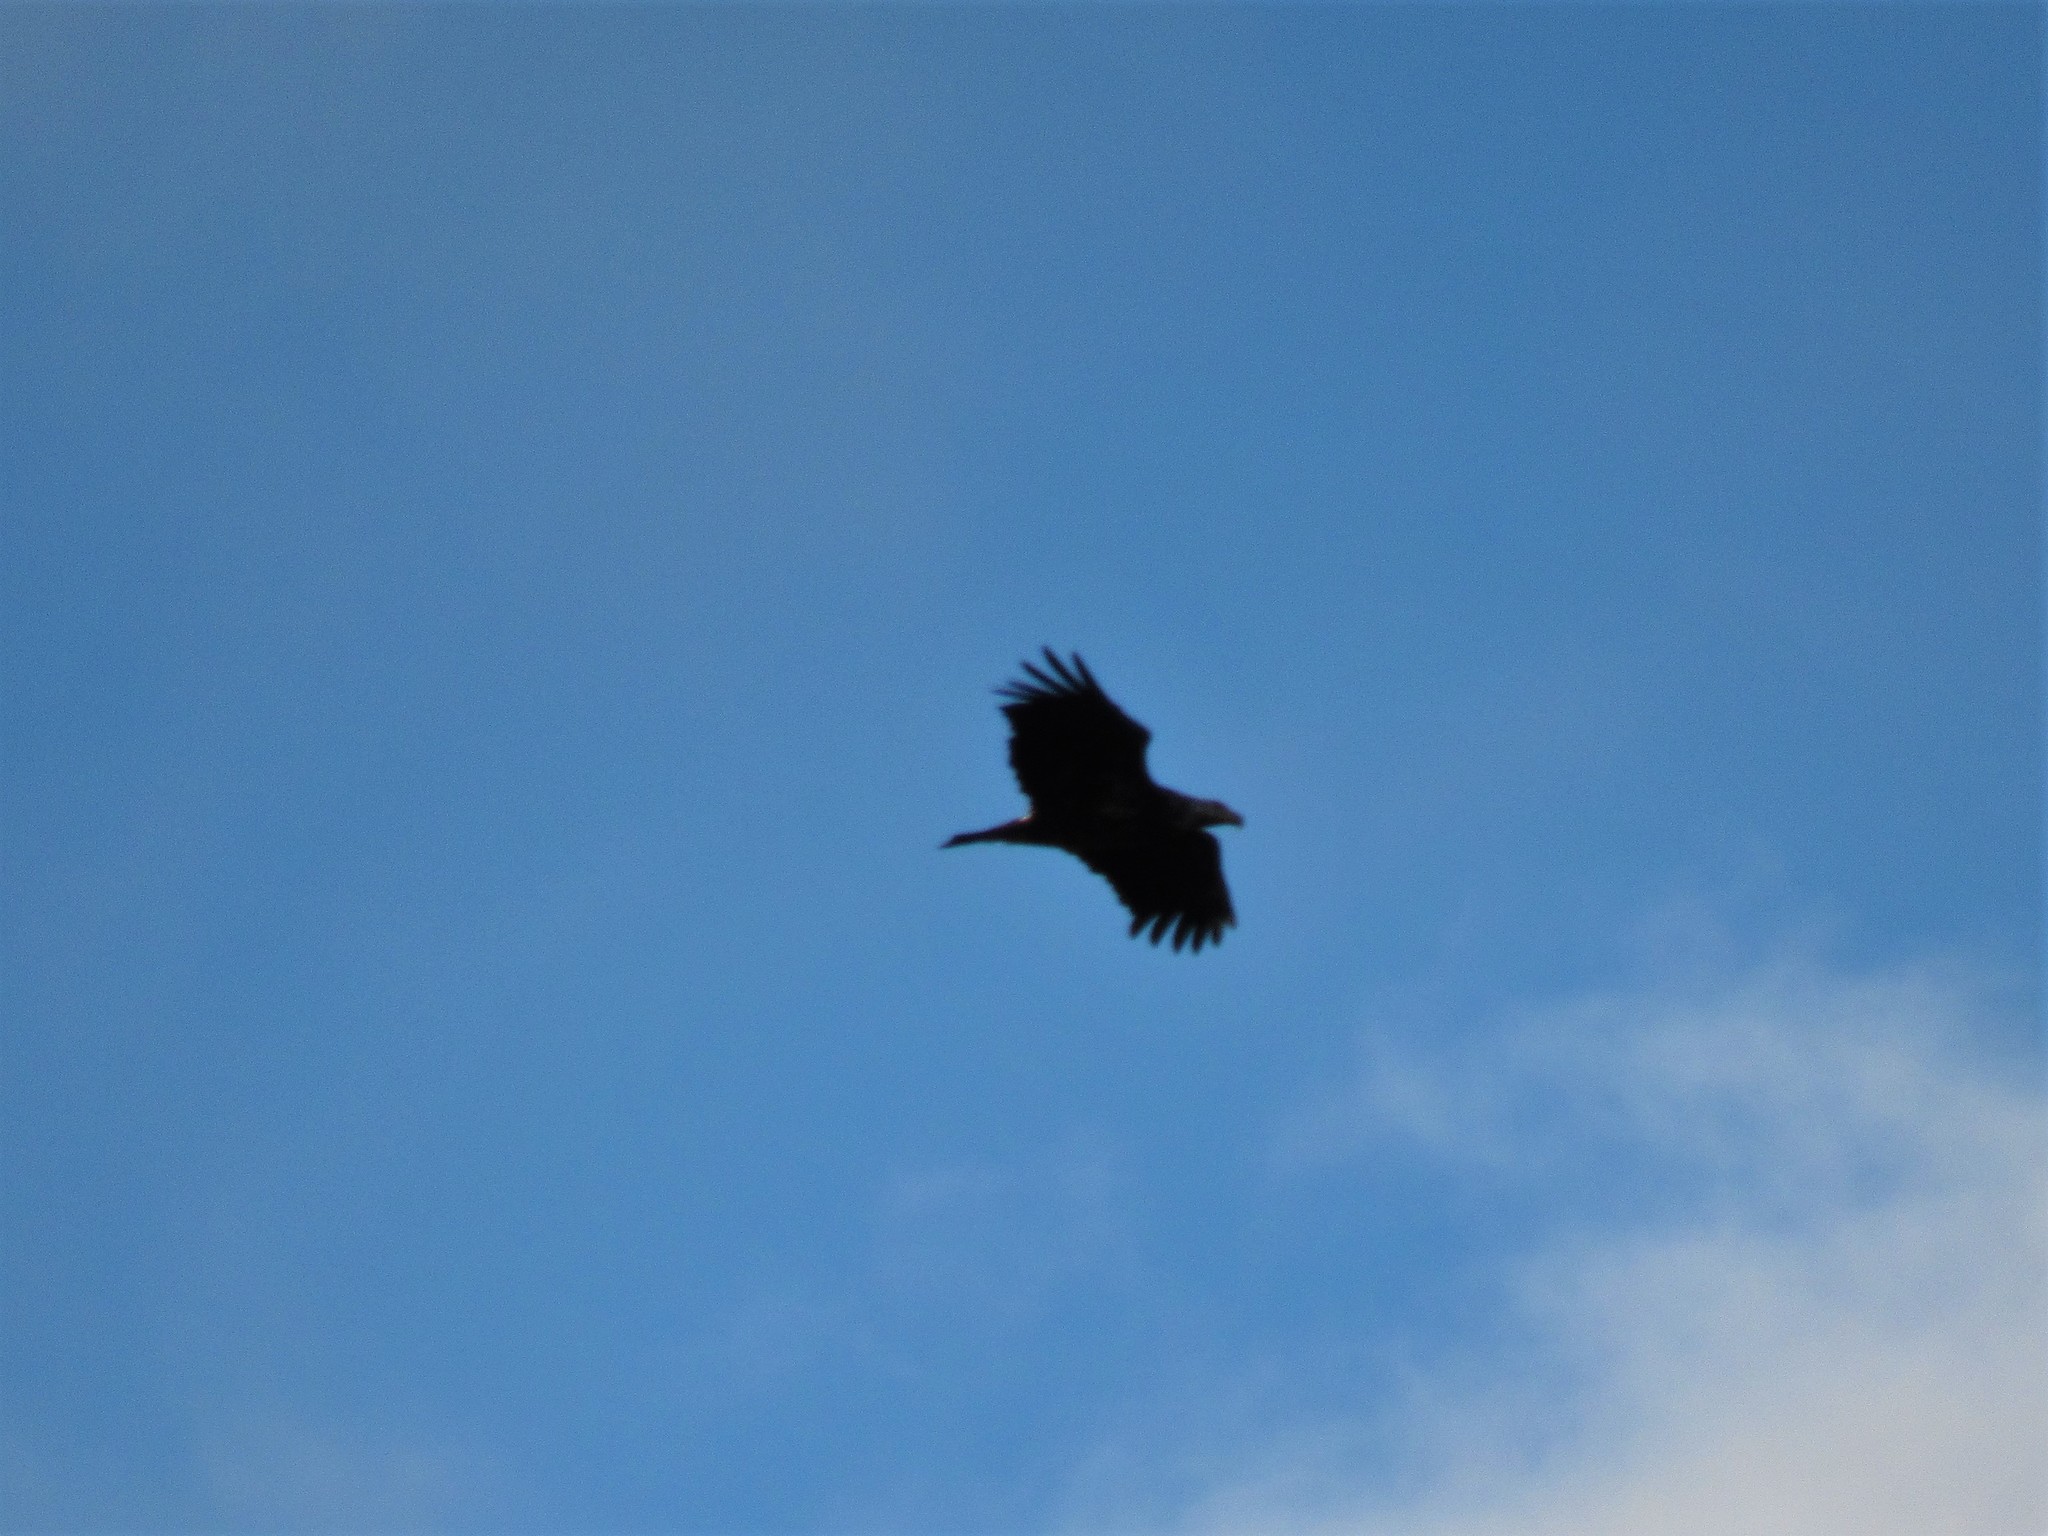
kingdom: Animalia
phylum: Chordata
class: Aves
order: Accipitriformes
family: Accipitridae
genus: Haliaeetus
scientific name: Haliaeetus leucocephalus
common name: Bald eagle
